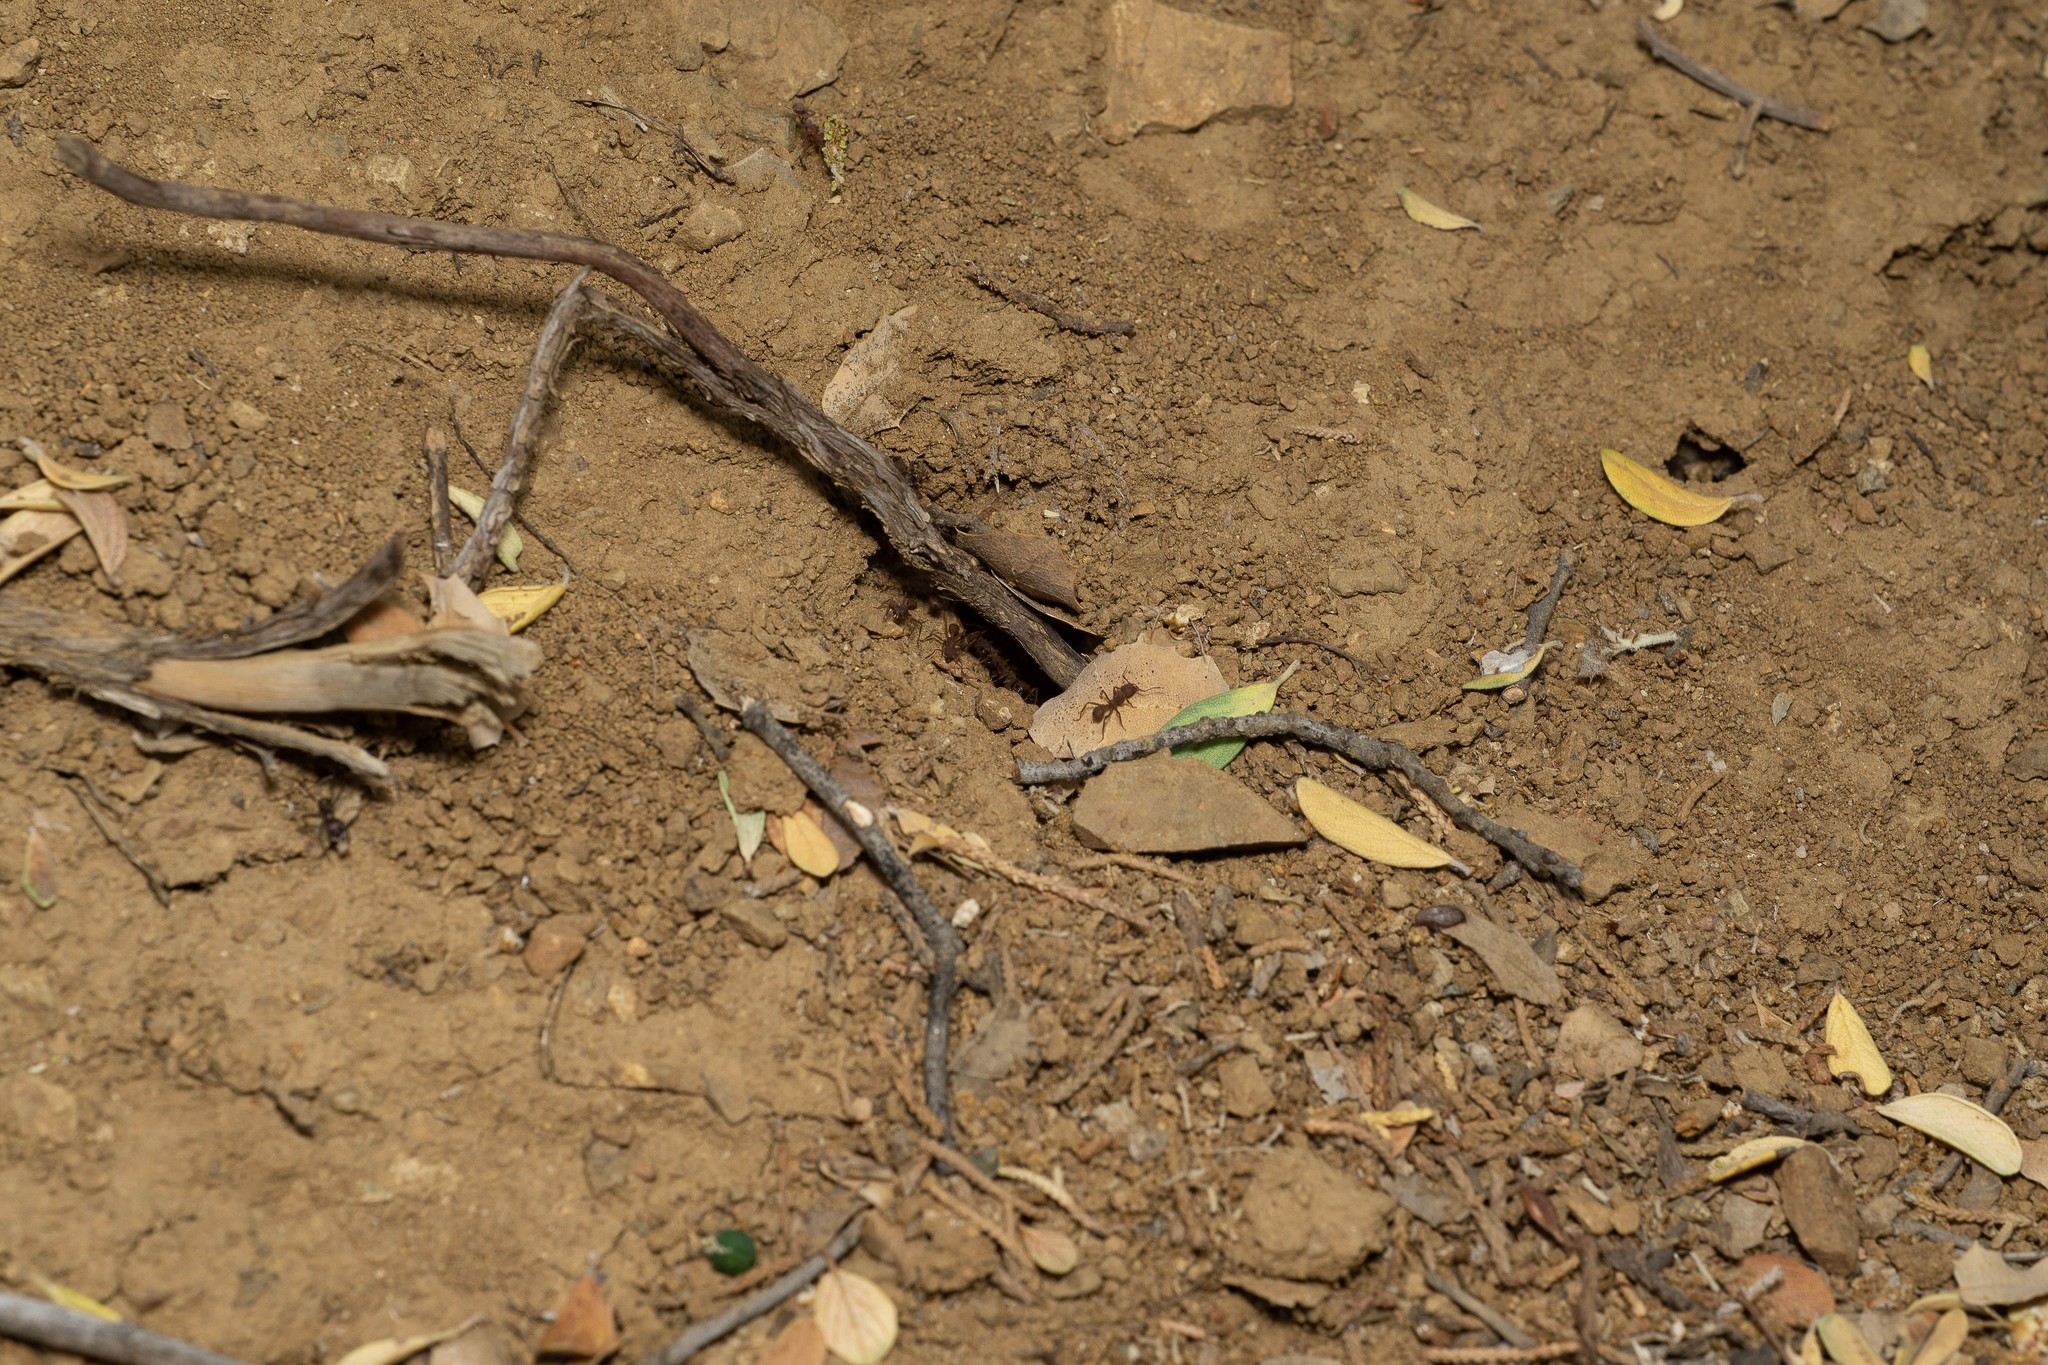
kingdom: Animalia
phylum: Arthropoda
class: Insecta
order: Hymenoptera
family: Formicidae
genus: Trachymyrmex
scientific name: Trachymyrmex arizonensis
